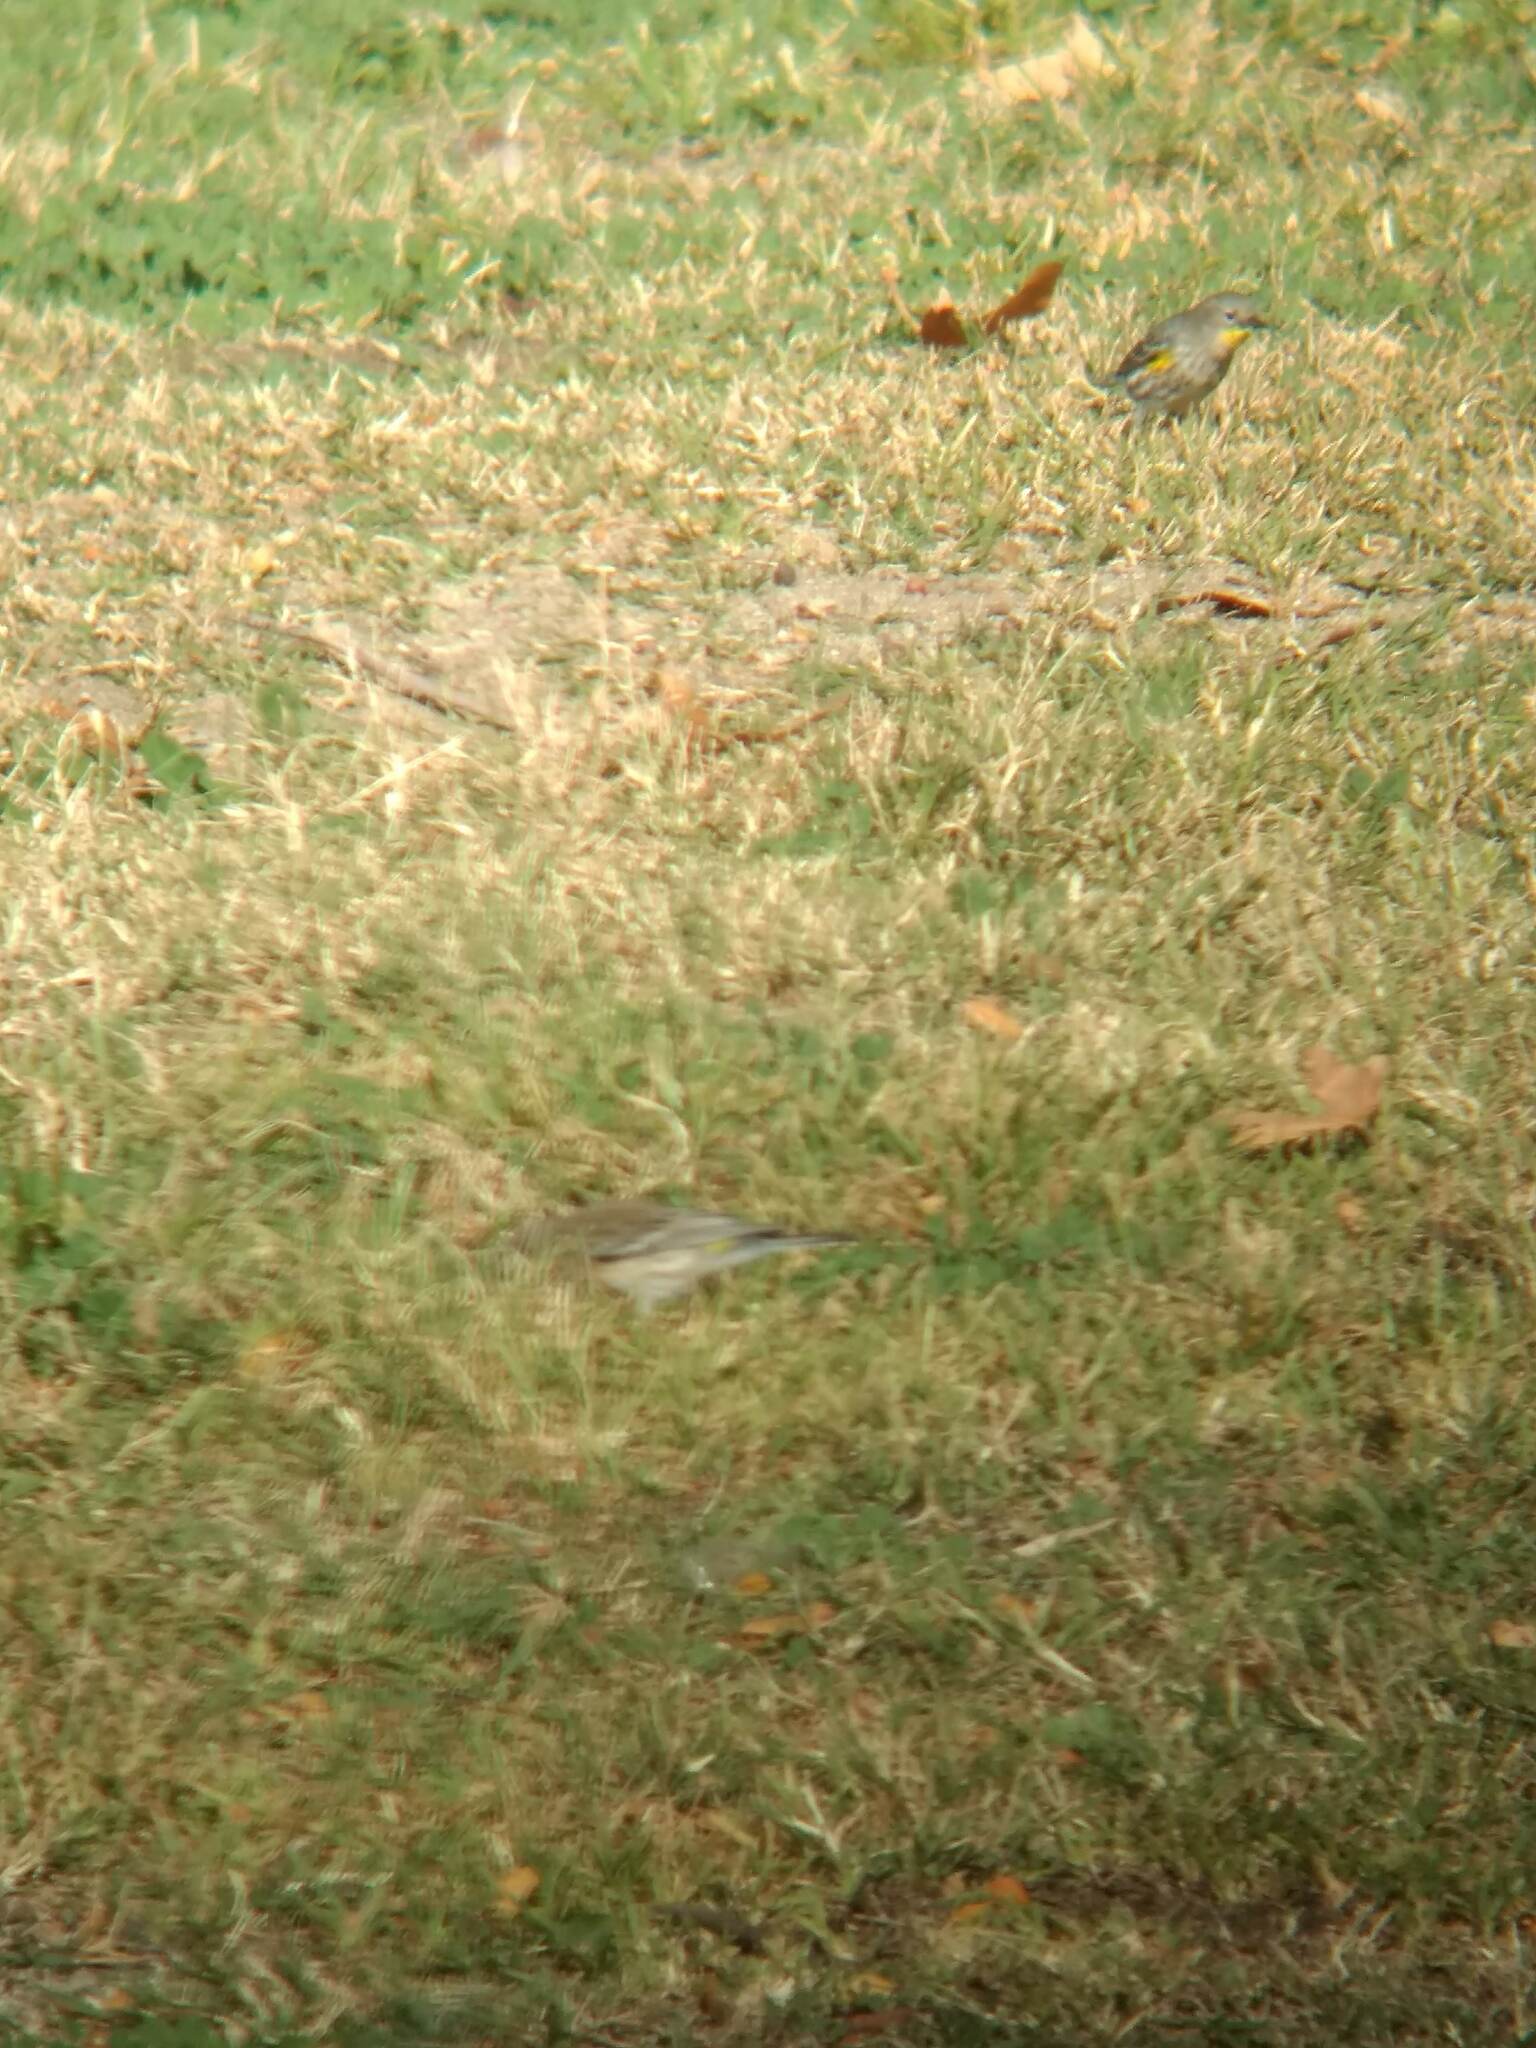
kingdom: Animalia
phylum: Chordata
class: Aves
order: Passeriformes
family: Parulidae
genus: Setophaga
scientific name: Setophaga coronata
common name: Myrtle warbler
